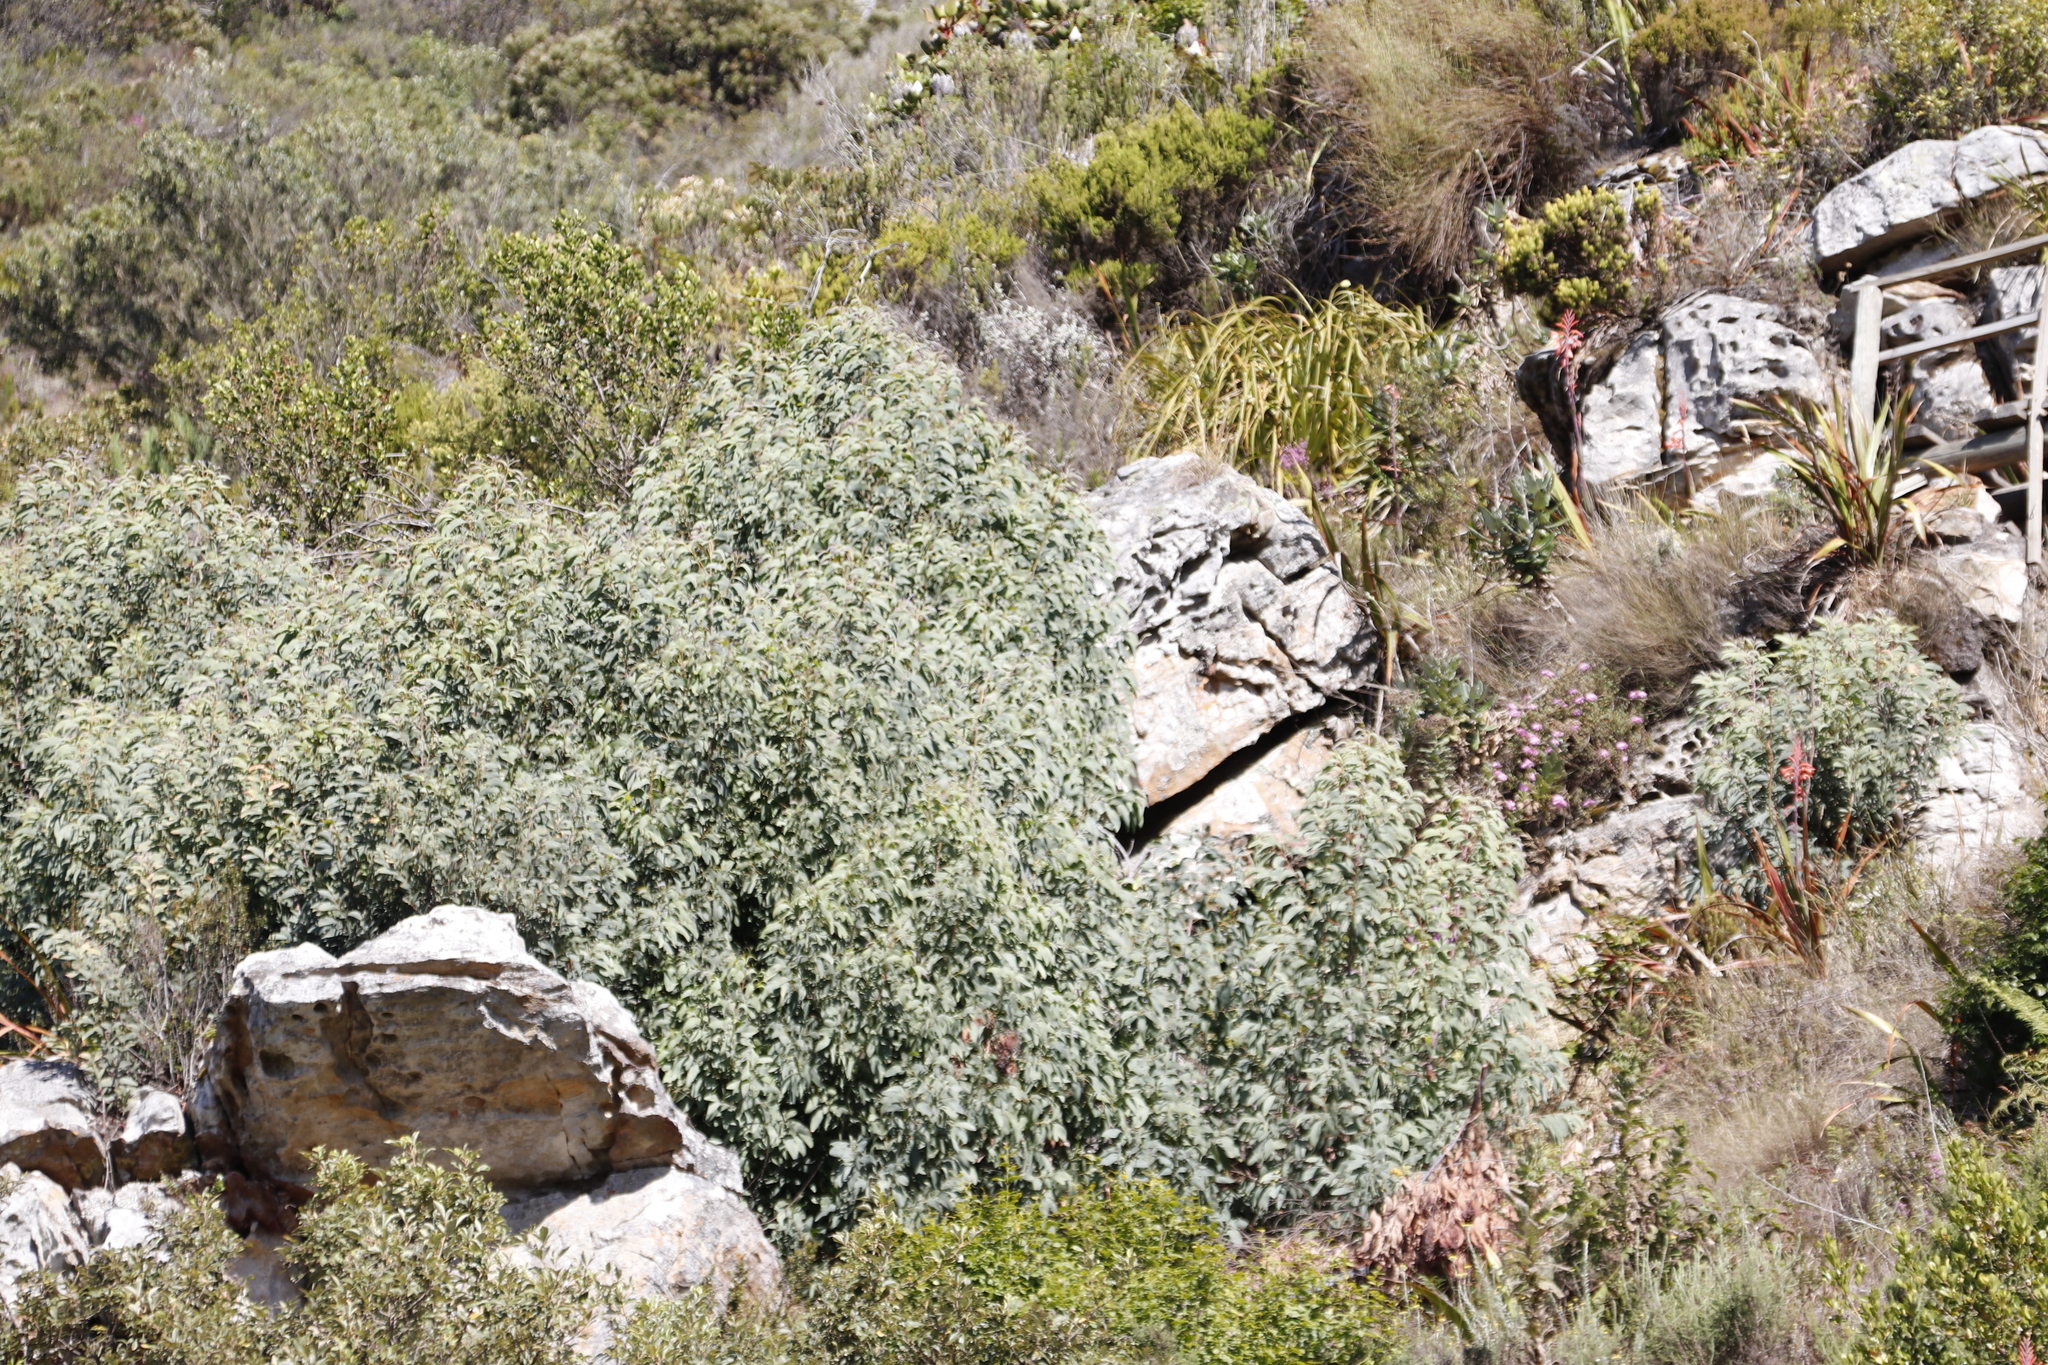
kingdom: Plantae
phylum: Tracheophyta
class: Magnoliopsida
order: Fabales
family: Fabaceae
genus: Acacia
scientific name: Acacia falciformis
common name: Tanning wattle
